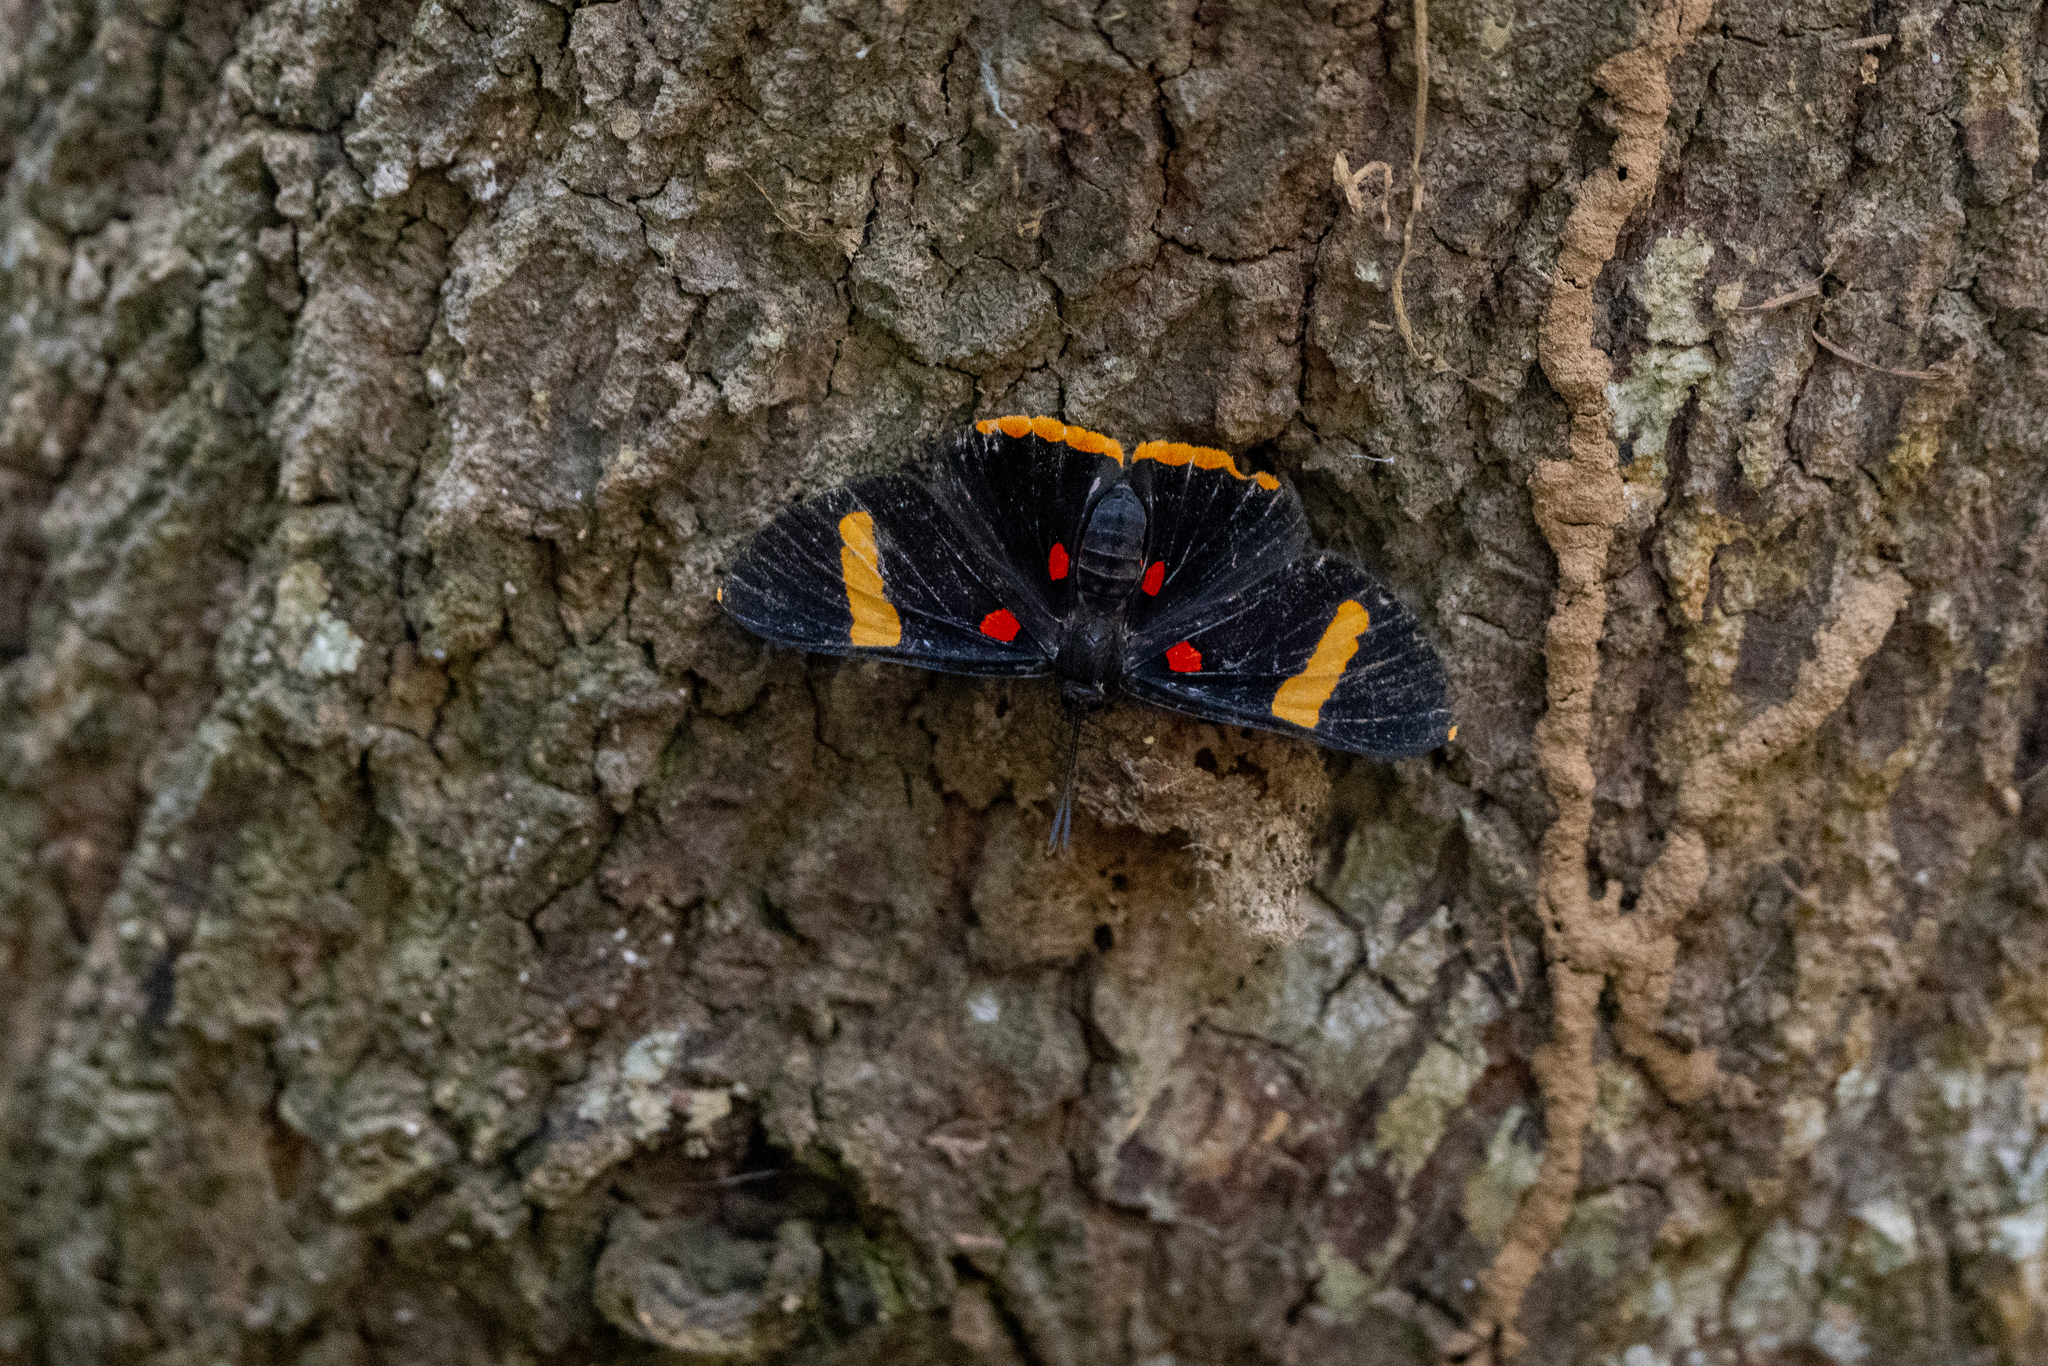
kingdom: Animalia
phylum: Arthropoda
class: Insecta
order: Lepidoptera
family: Lycaenidae
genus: Melanis
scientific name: Melanis electron
